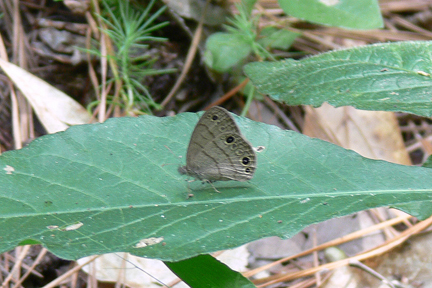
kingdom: Animalia
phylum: Arthropoda
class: Insecta
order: Lepidoptera
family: Nymphalidae
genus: Hermeuptychia
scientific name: Hermeuptychia hermes
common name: Hermes satyr
